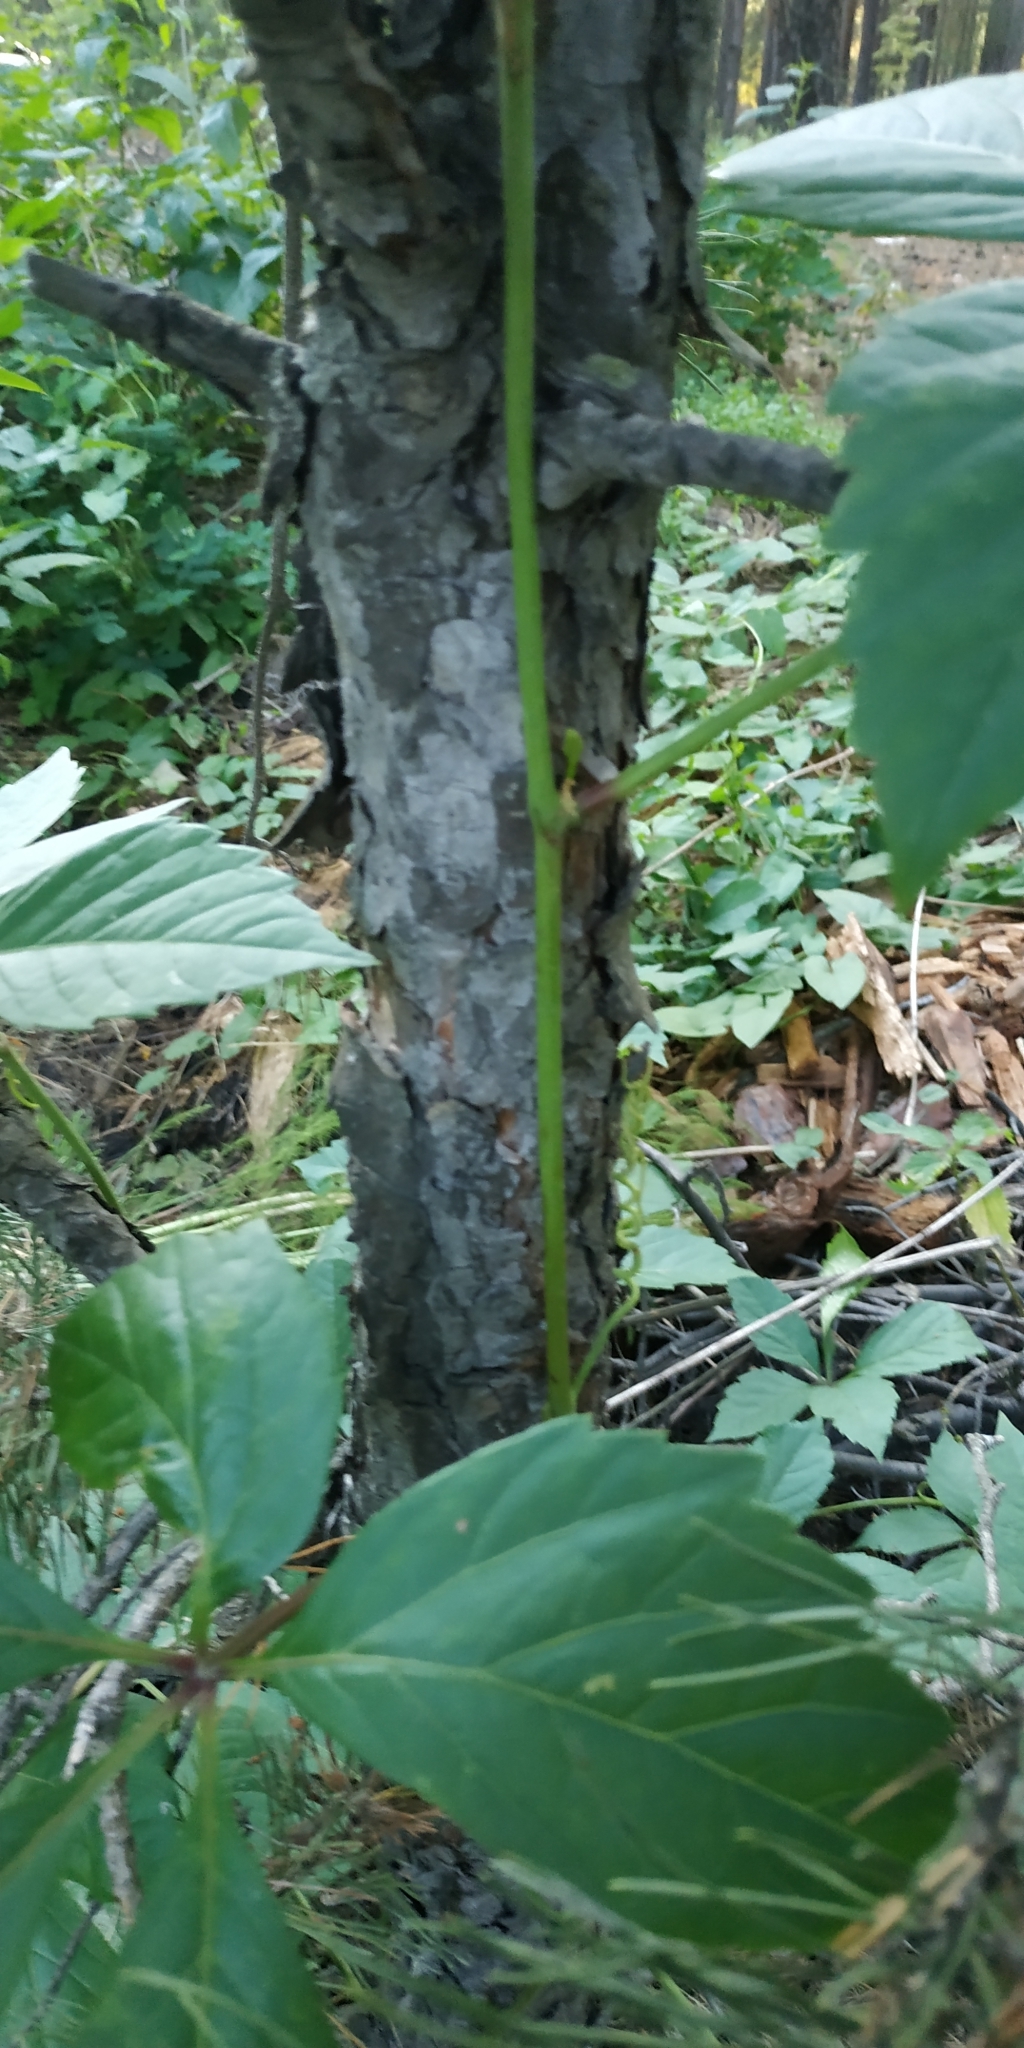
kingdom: Plantae
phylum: Tracheophyta
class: Magnoliopsida
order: Vitales
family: Vitaceae
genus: Parthenocissus
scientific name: Parthenocissus inserta
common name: False virginia-creeper
